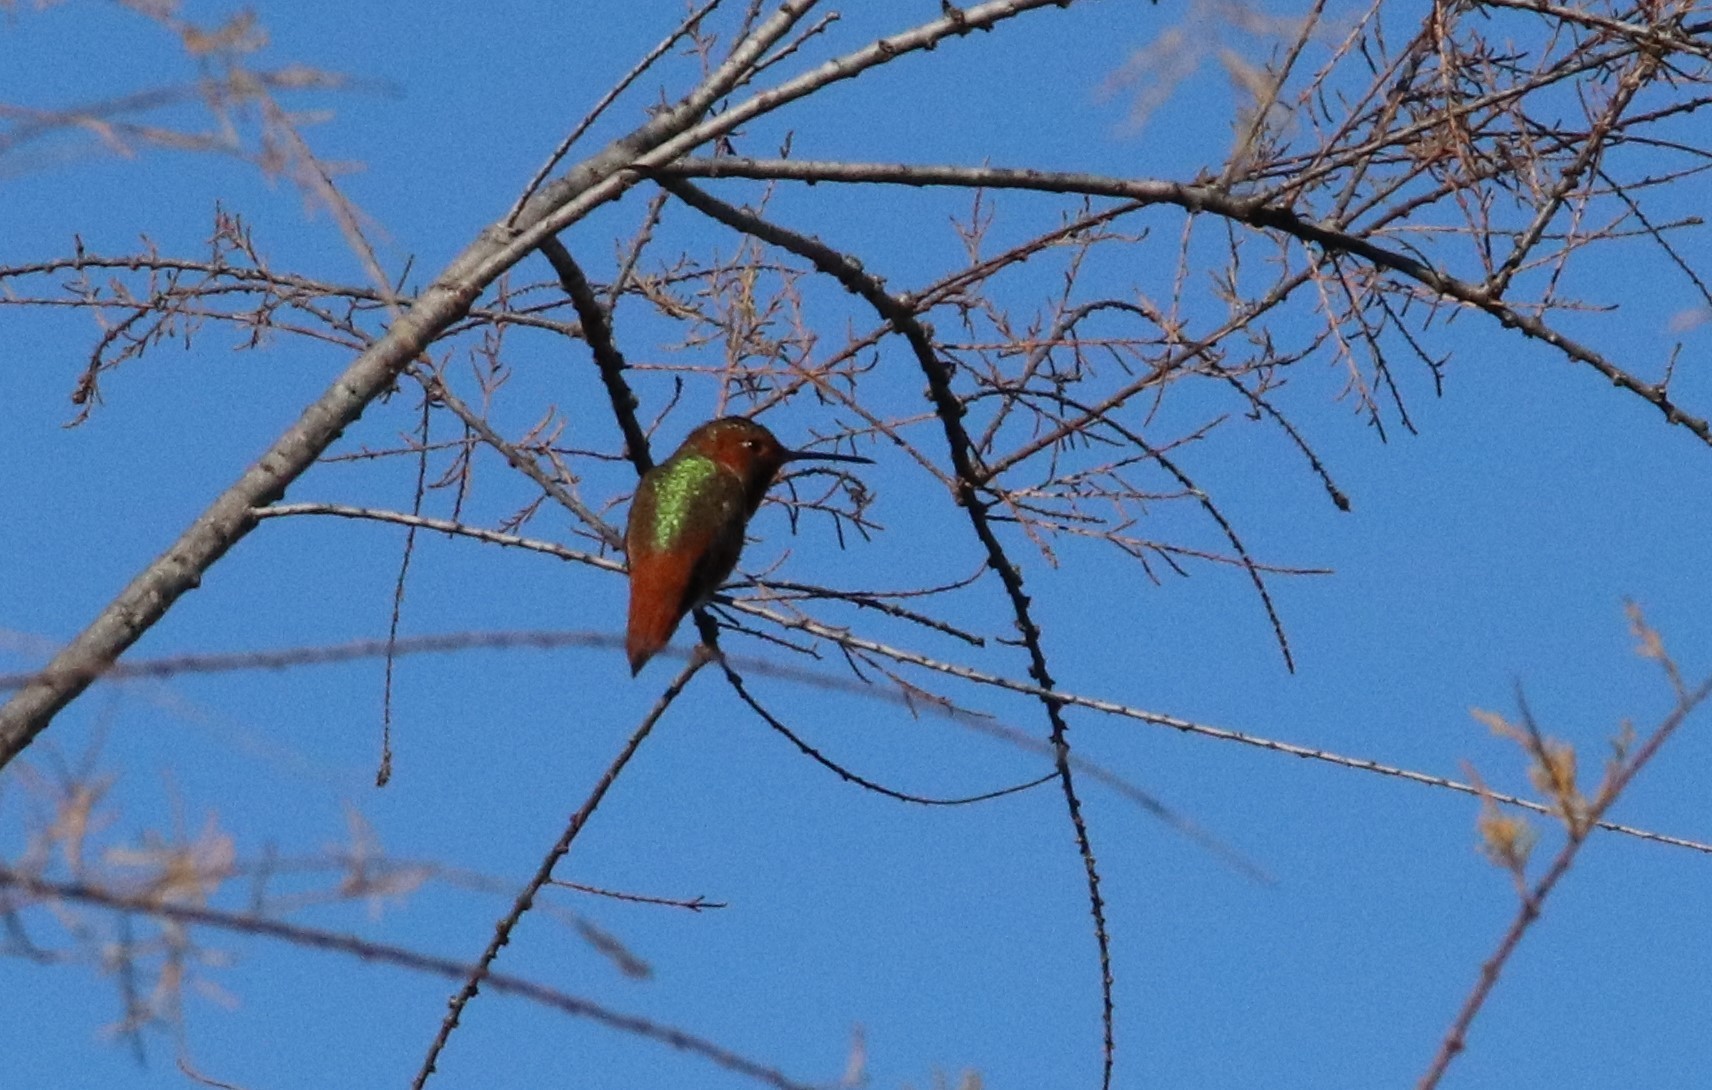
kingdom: Animalia
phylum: Chordata
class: Aves
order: Apodiformes
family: Trochilidae
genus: Selasphorus
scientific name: Selasphorus sasin
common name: Allen's hummingbird
